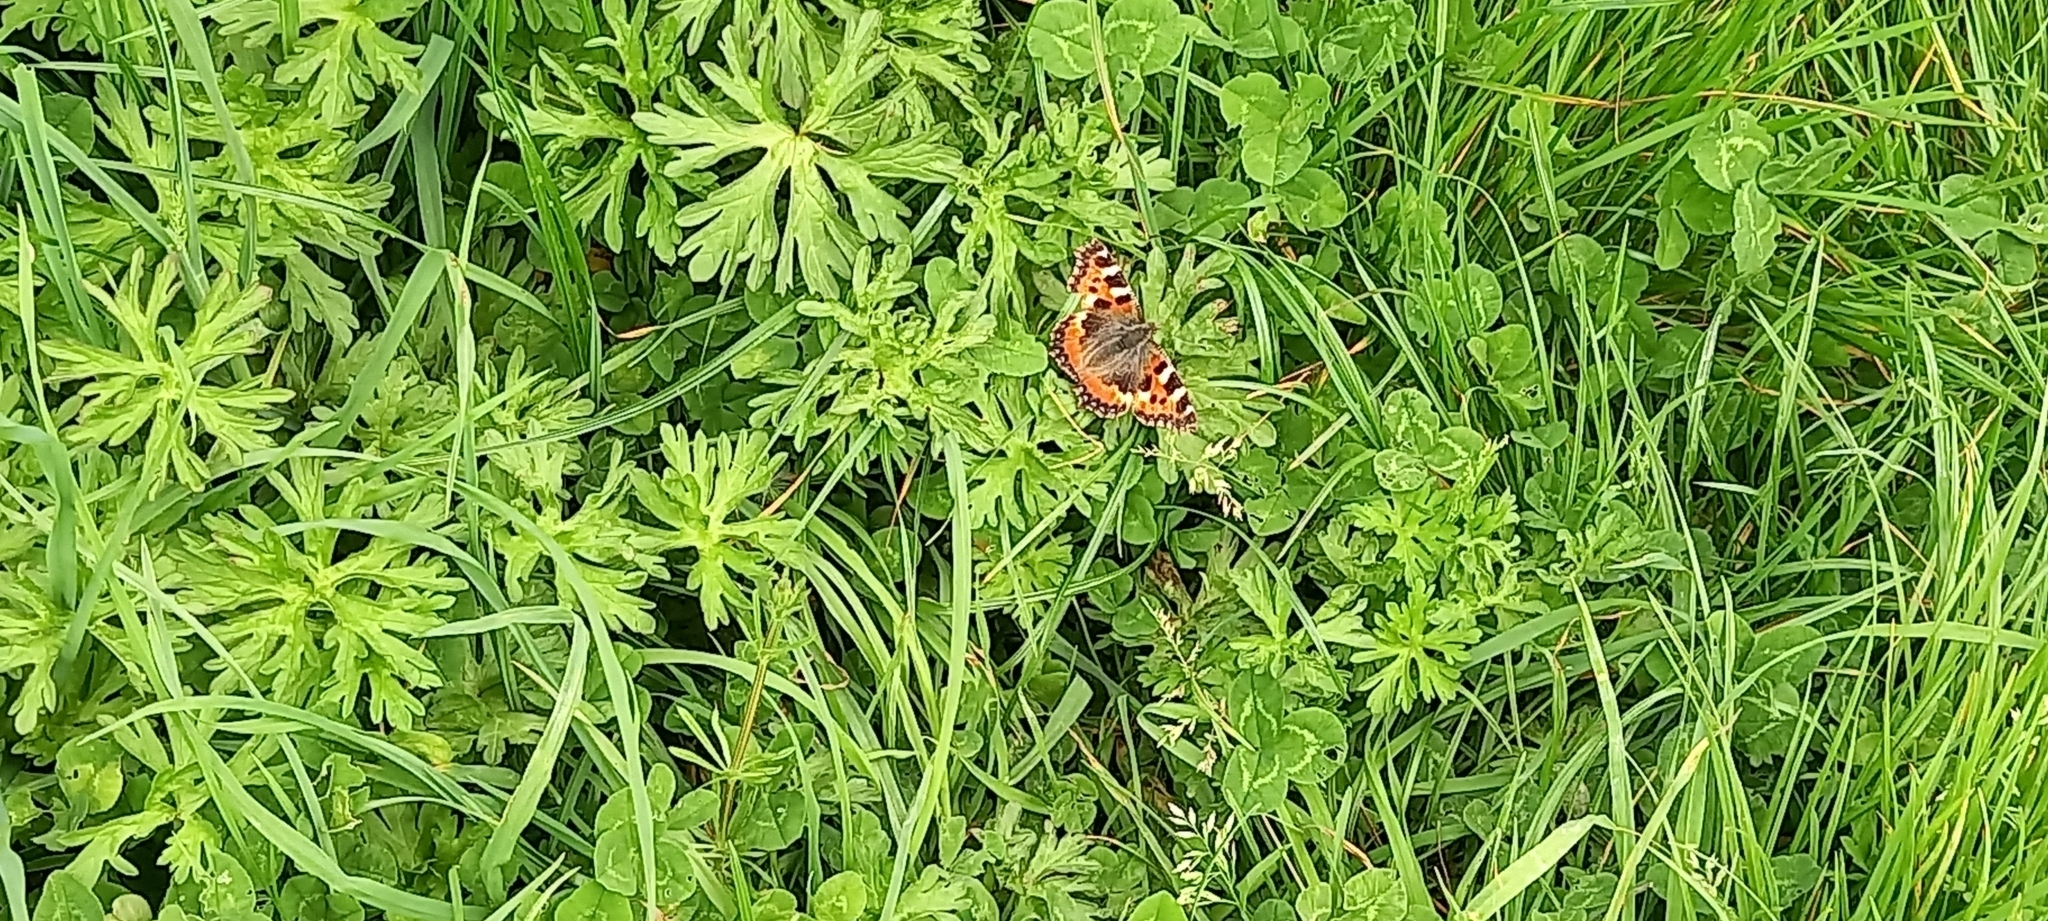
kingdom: Animalia
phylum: Arthropoda
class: Insecta
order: Lepidoptera
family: Nymphalidae
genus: Aglais
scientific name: Aglais urticae
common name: Small tortoiseshell
